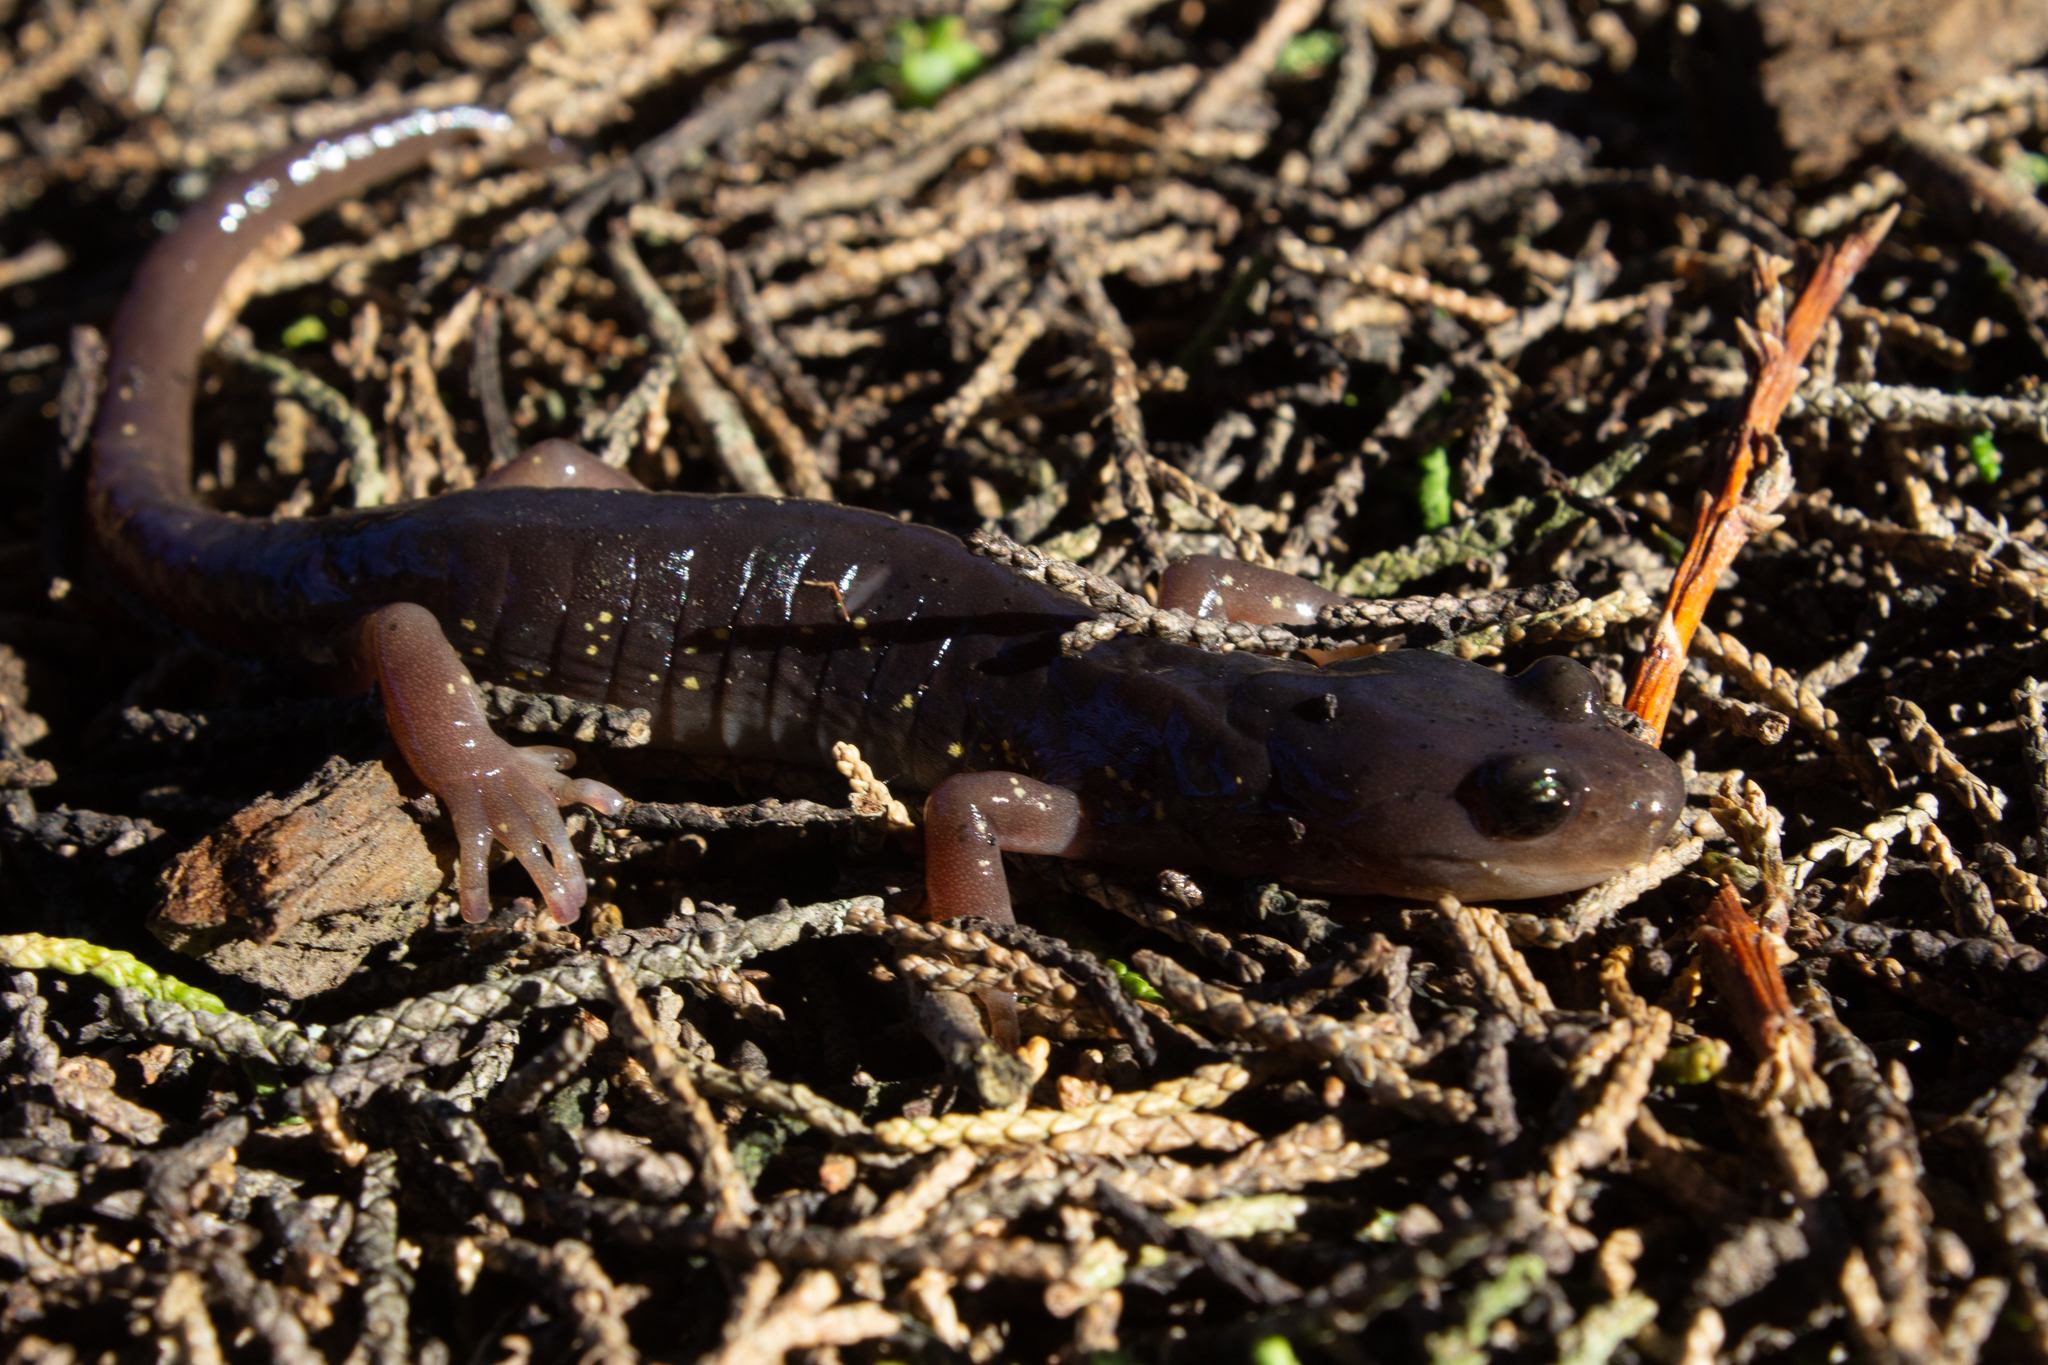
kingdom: Animalia
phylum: Chordata
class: Amphibia
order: Caudata
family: Plethodontidae
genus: Aneides
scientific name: Aneides lugubris
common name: Arboreal salamander
